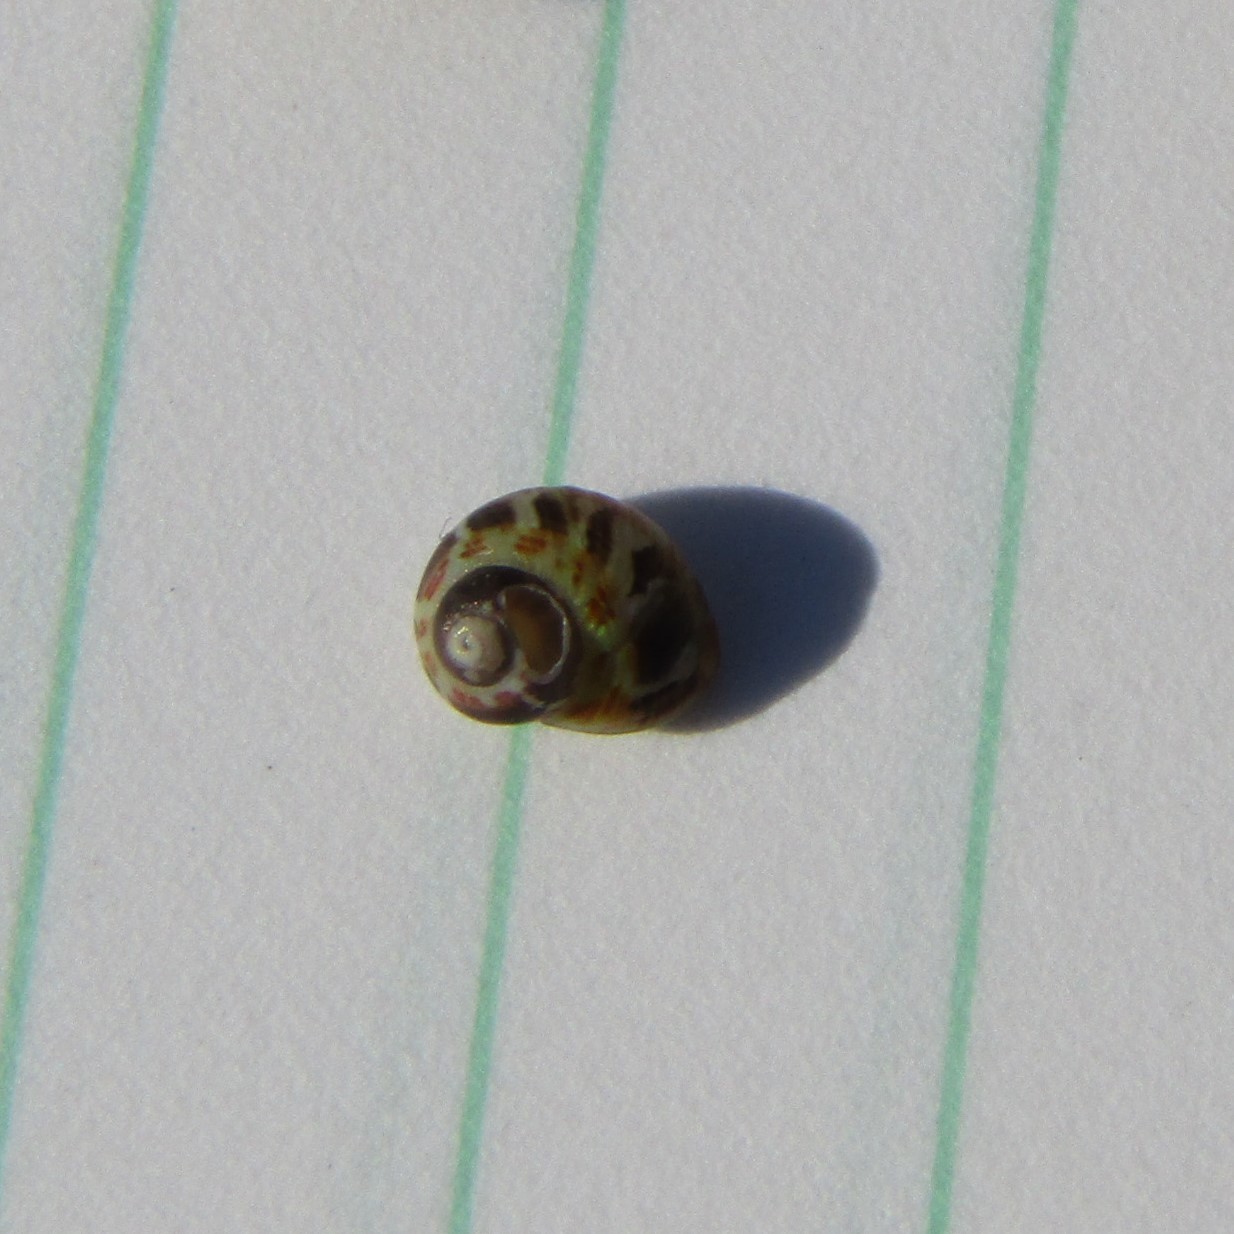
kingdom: Animalia
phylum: Mollusca
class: Gastropoda
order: Trochida
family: Trochidae
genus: Micrelenchus
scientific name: Micrelenchus tessellatus
